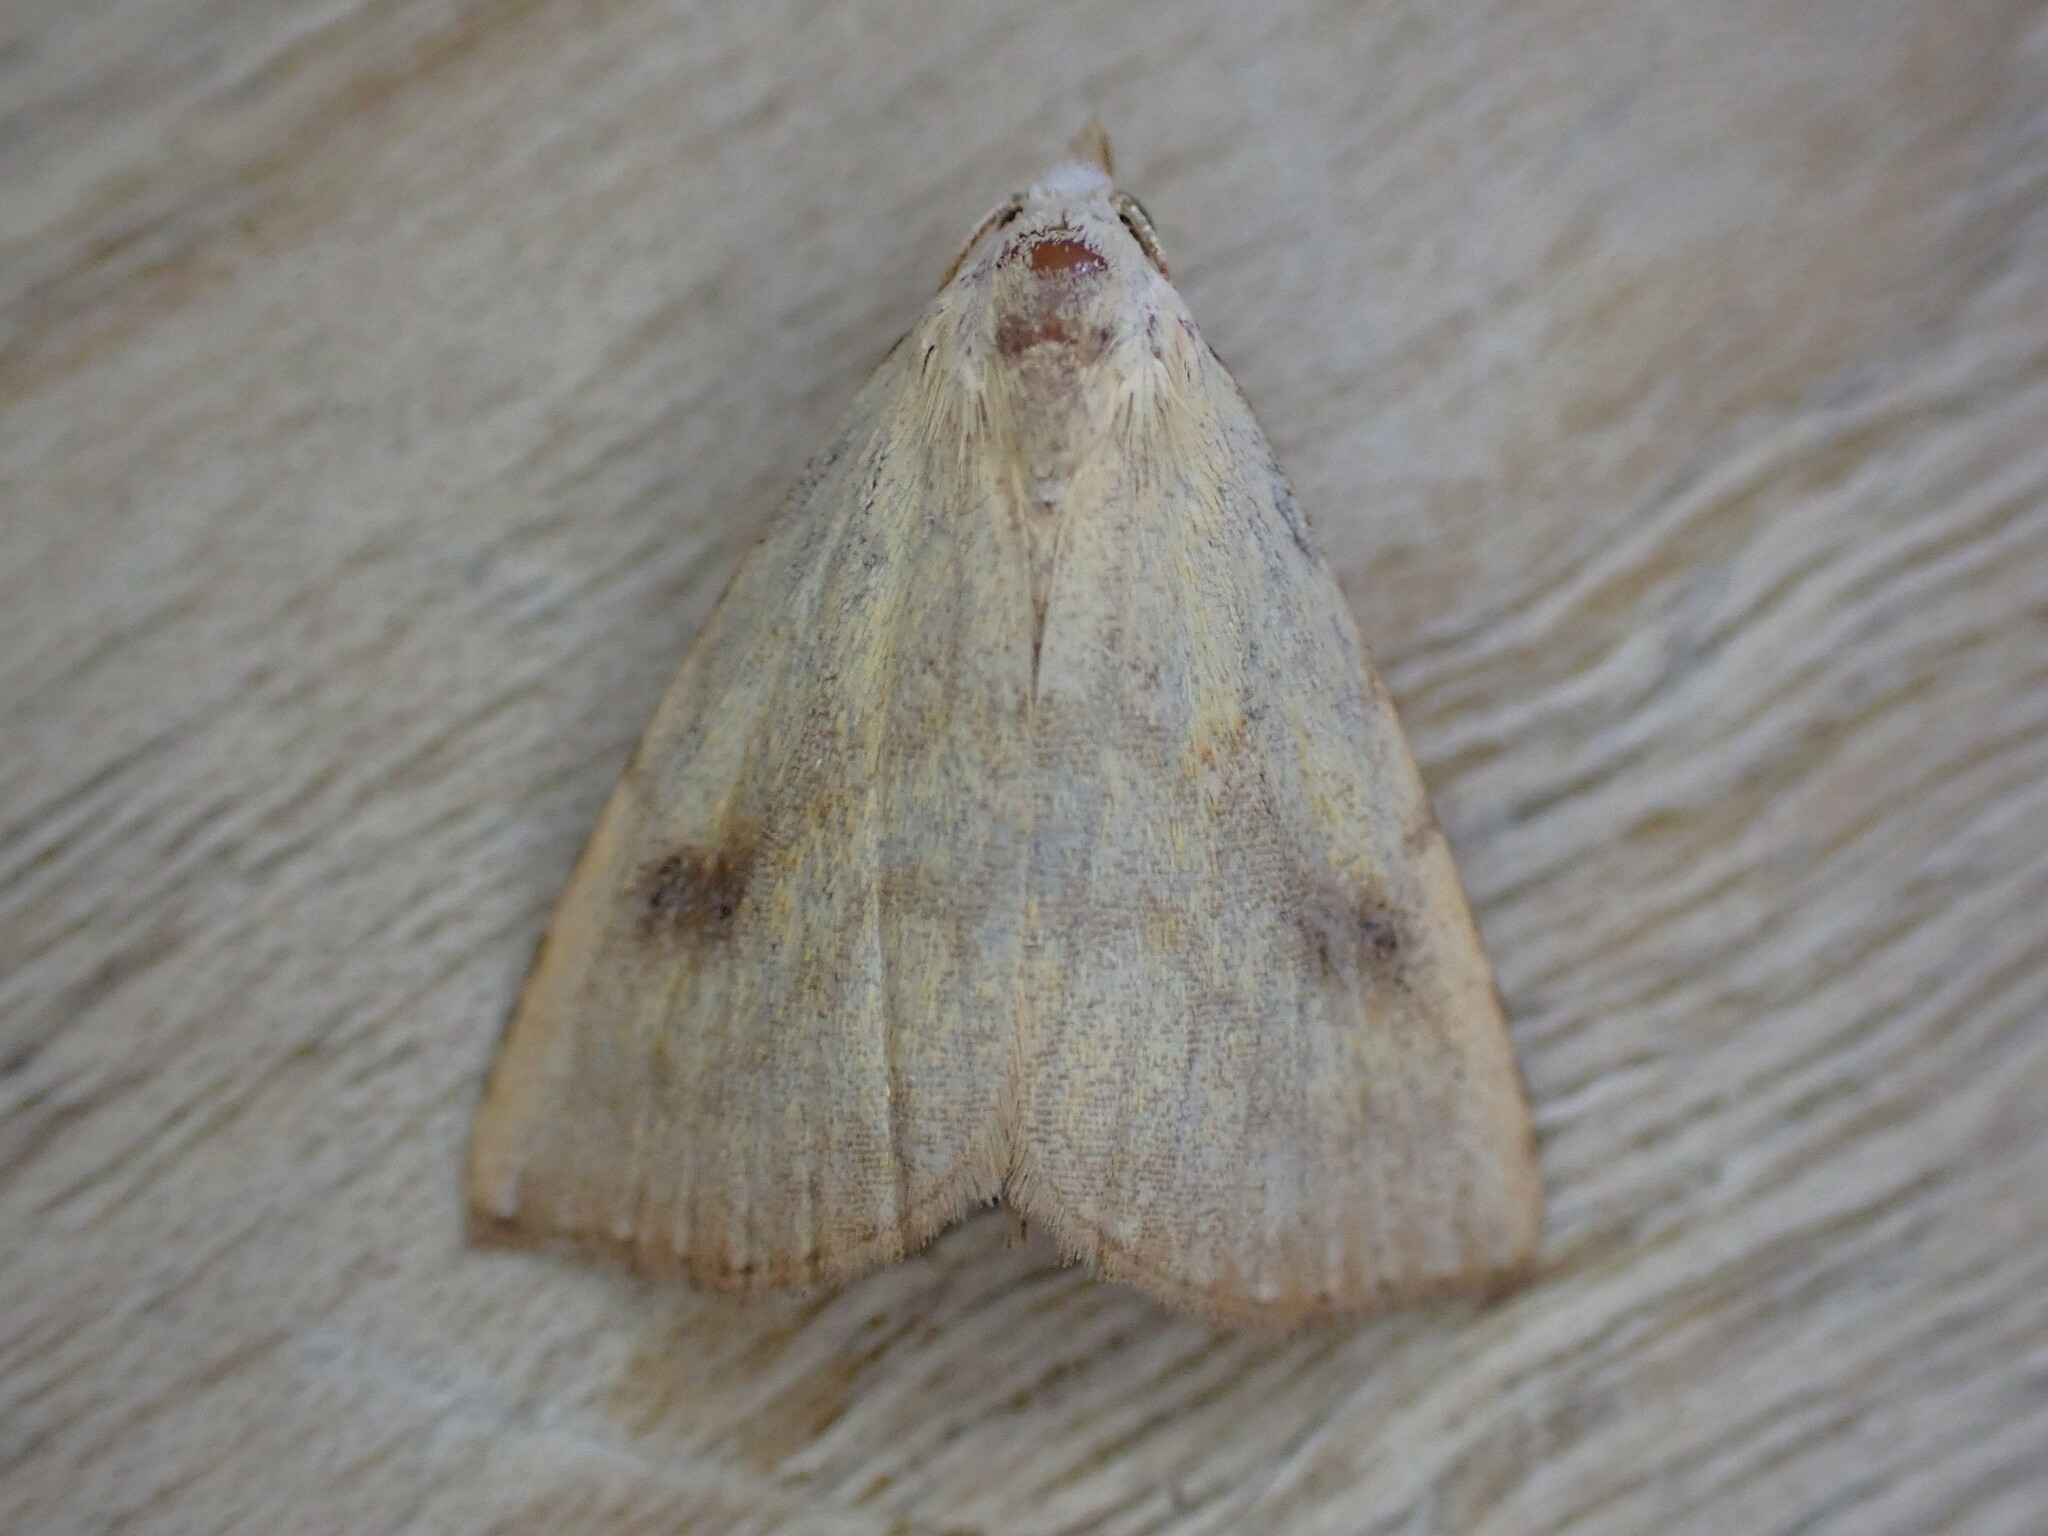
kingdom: Animalia
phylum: Arthropoda
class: Insecta
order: Lepidoptera
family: Erebidae
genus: Rivula
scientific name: Rivula sericealis
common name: Straw dot
